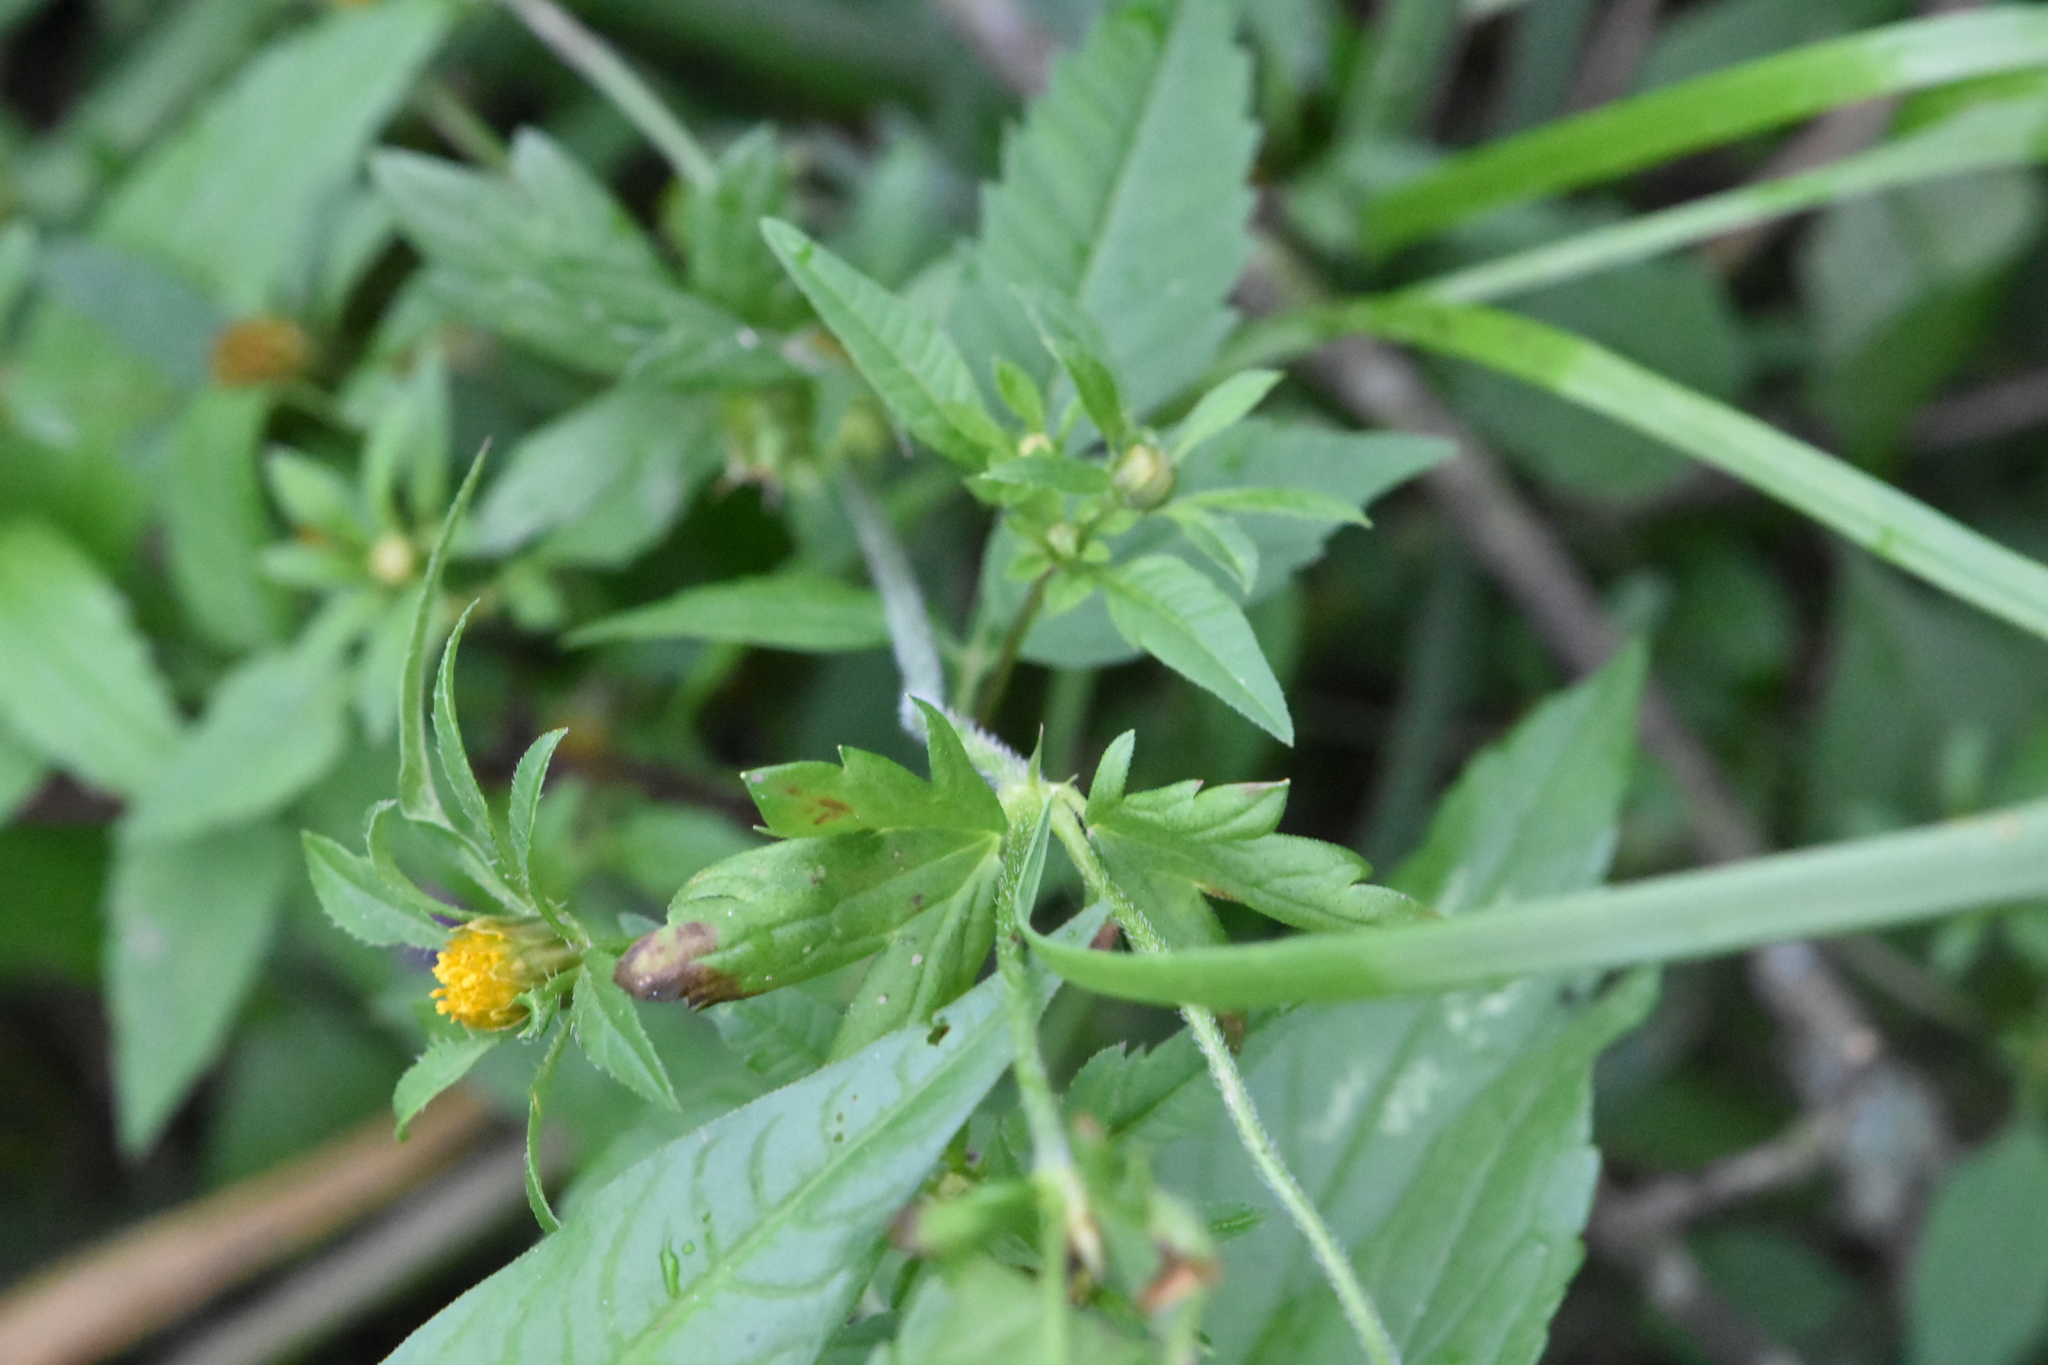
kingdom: Plantae
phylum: Tracheophyta
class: Magnoliopsida
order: Asterales
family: Asteraceae
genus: Bidens
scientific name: Bidens frondosa
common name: Beggarticks
